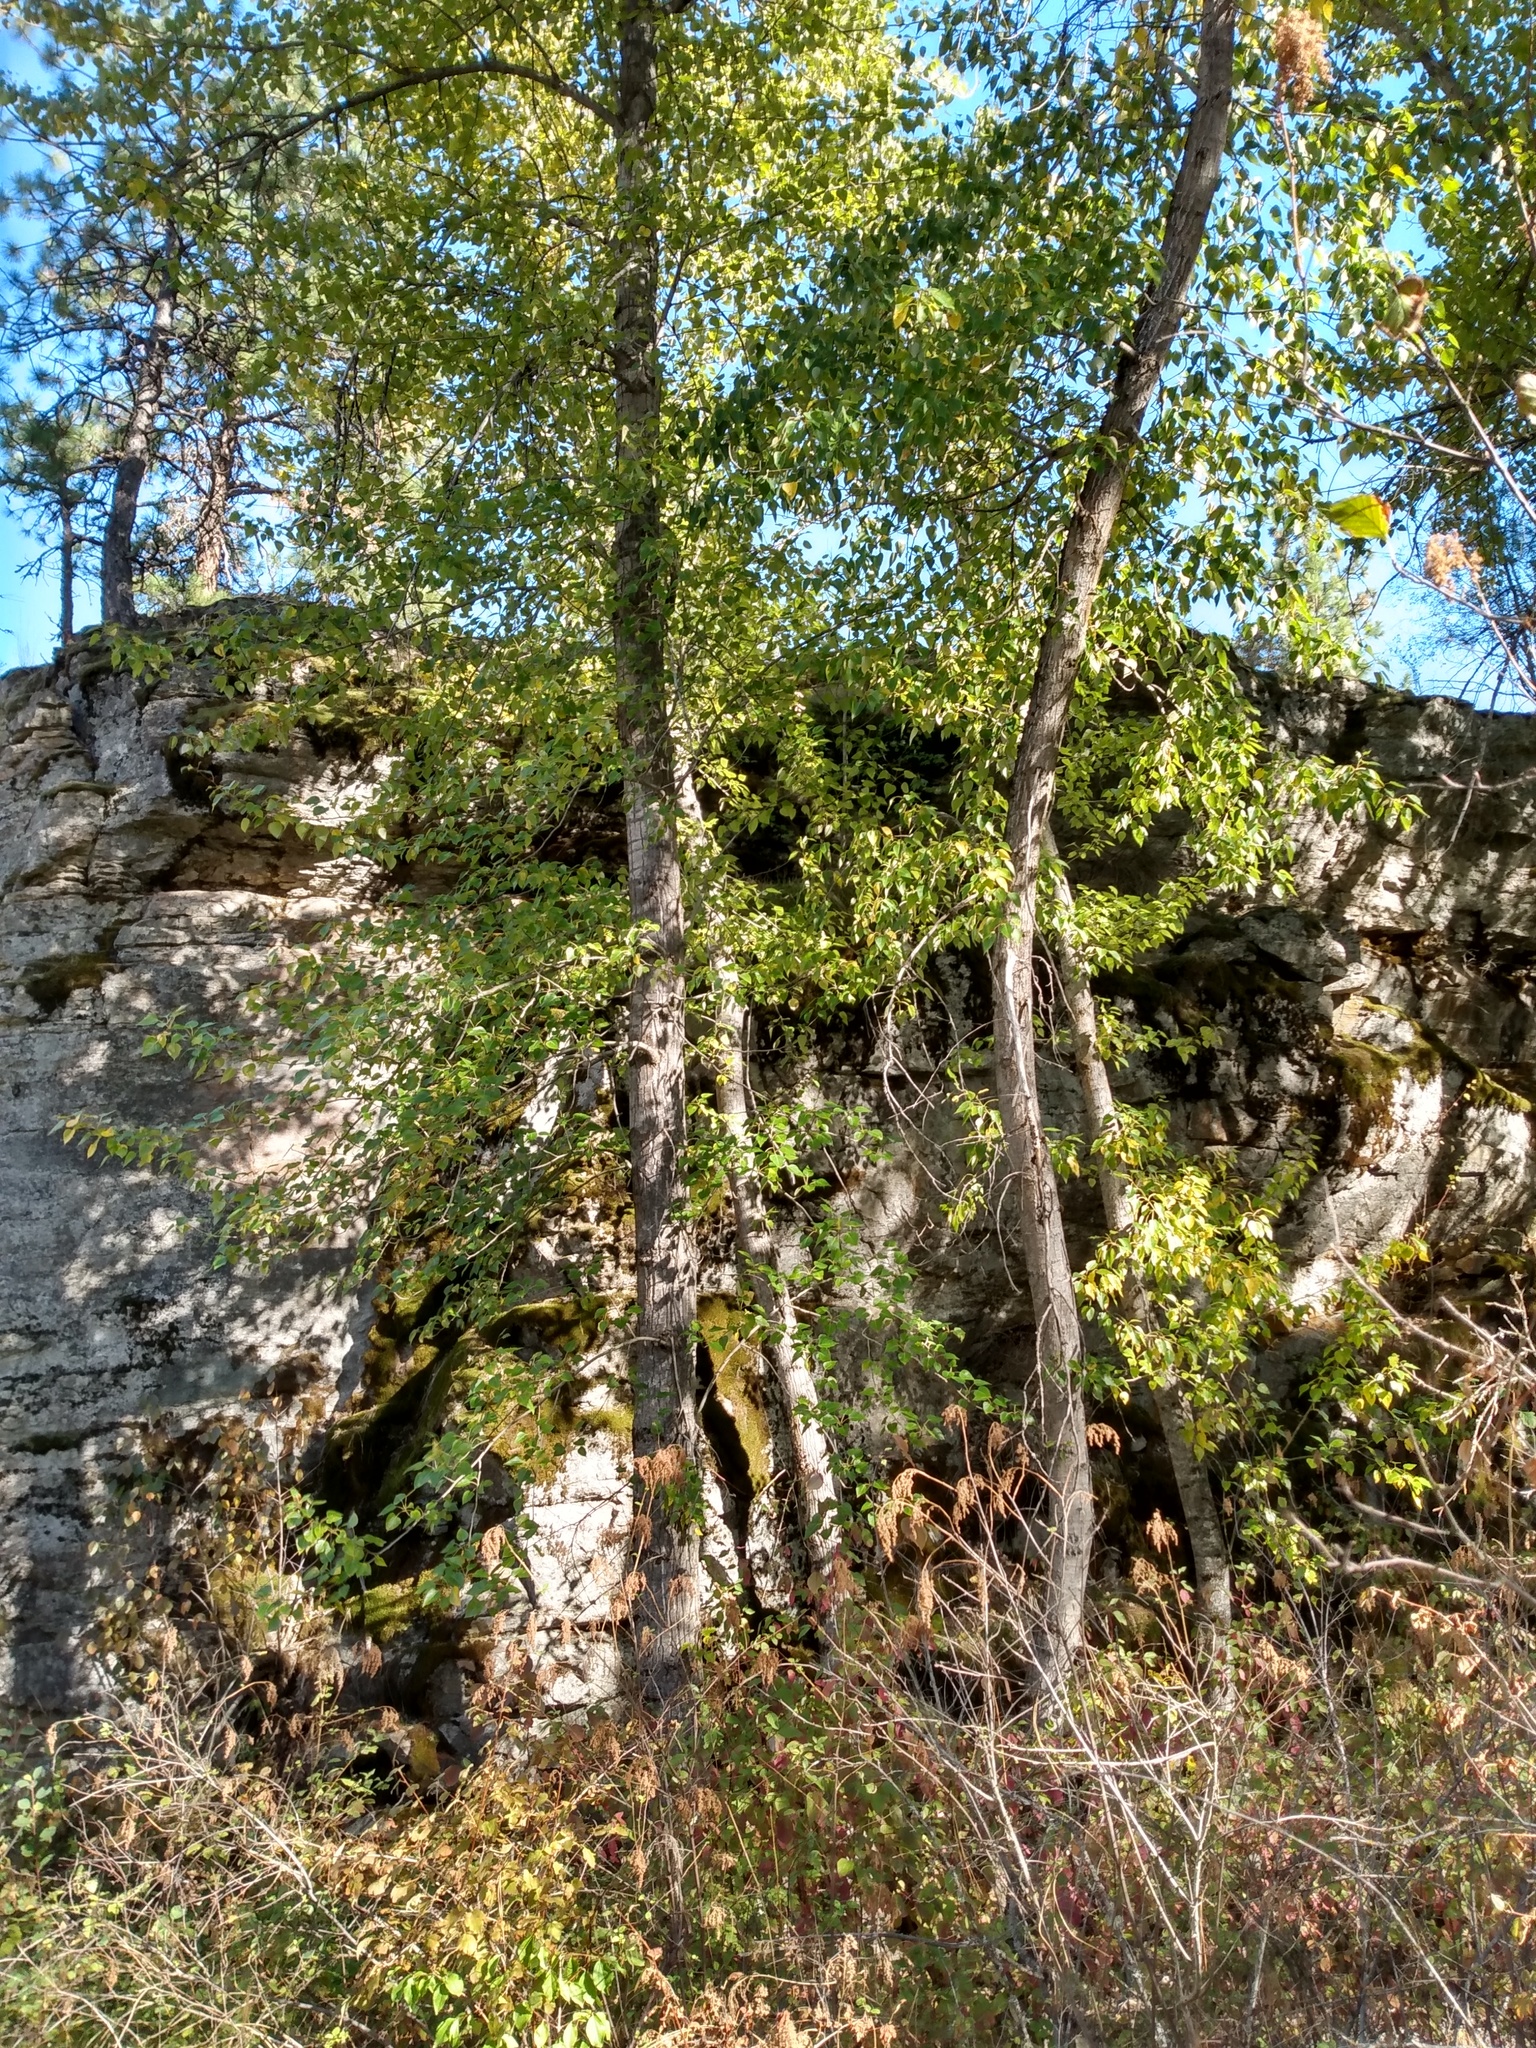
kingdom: Plantae
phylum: Tracheophyta
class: Magnoliopsida
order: Malpighiales
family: Salicaceae
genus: Populus
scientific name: Populus trichocarpa
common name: Black cottonwood
